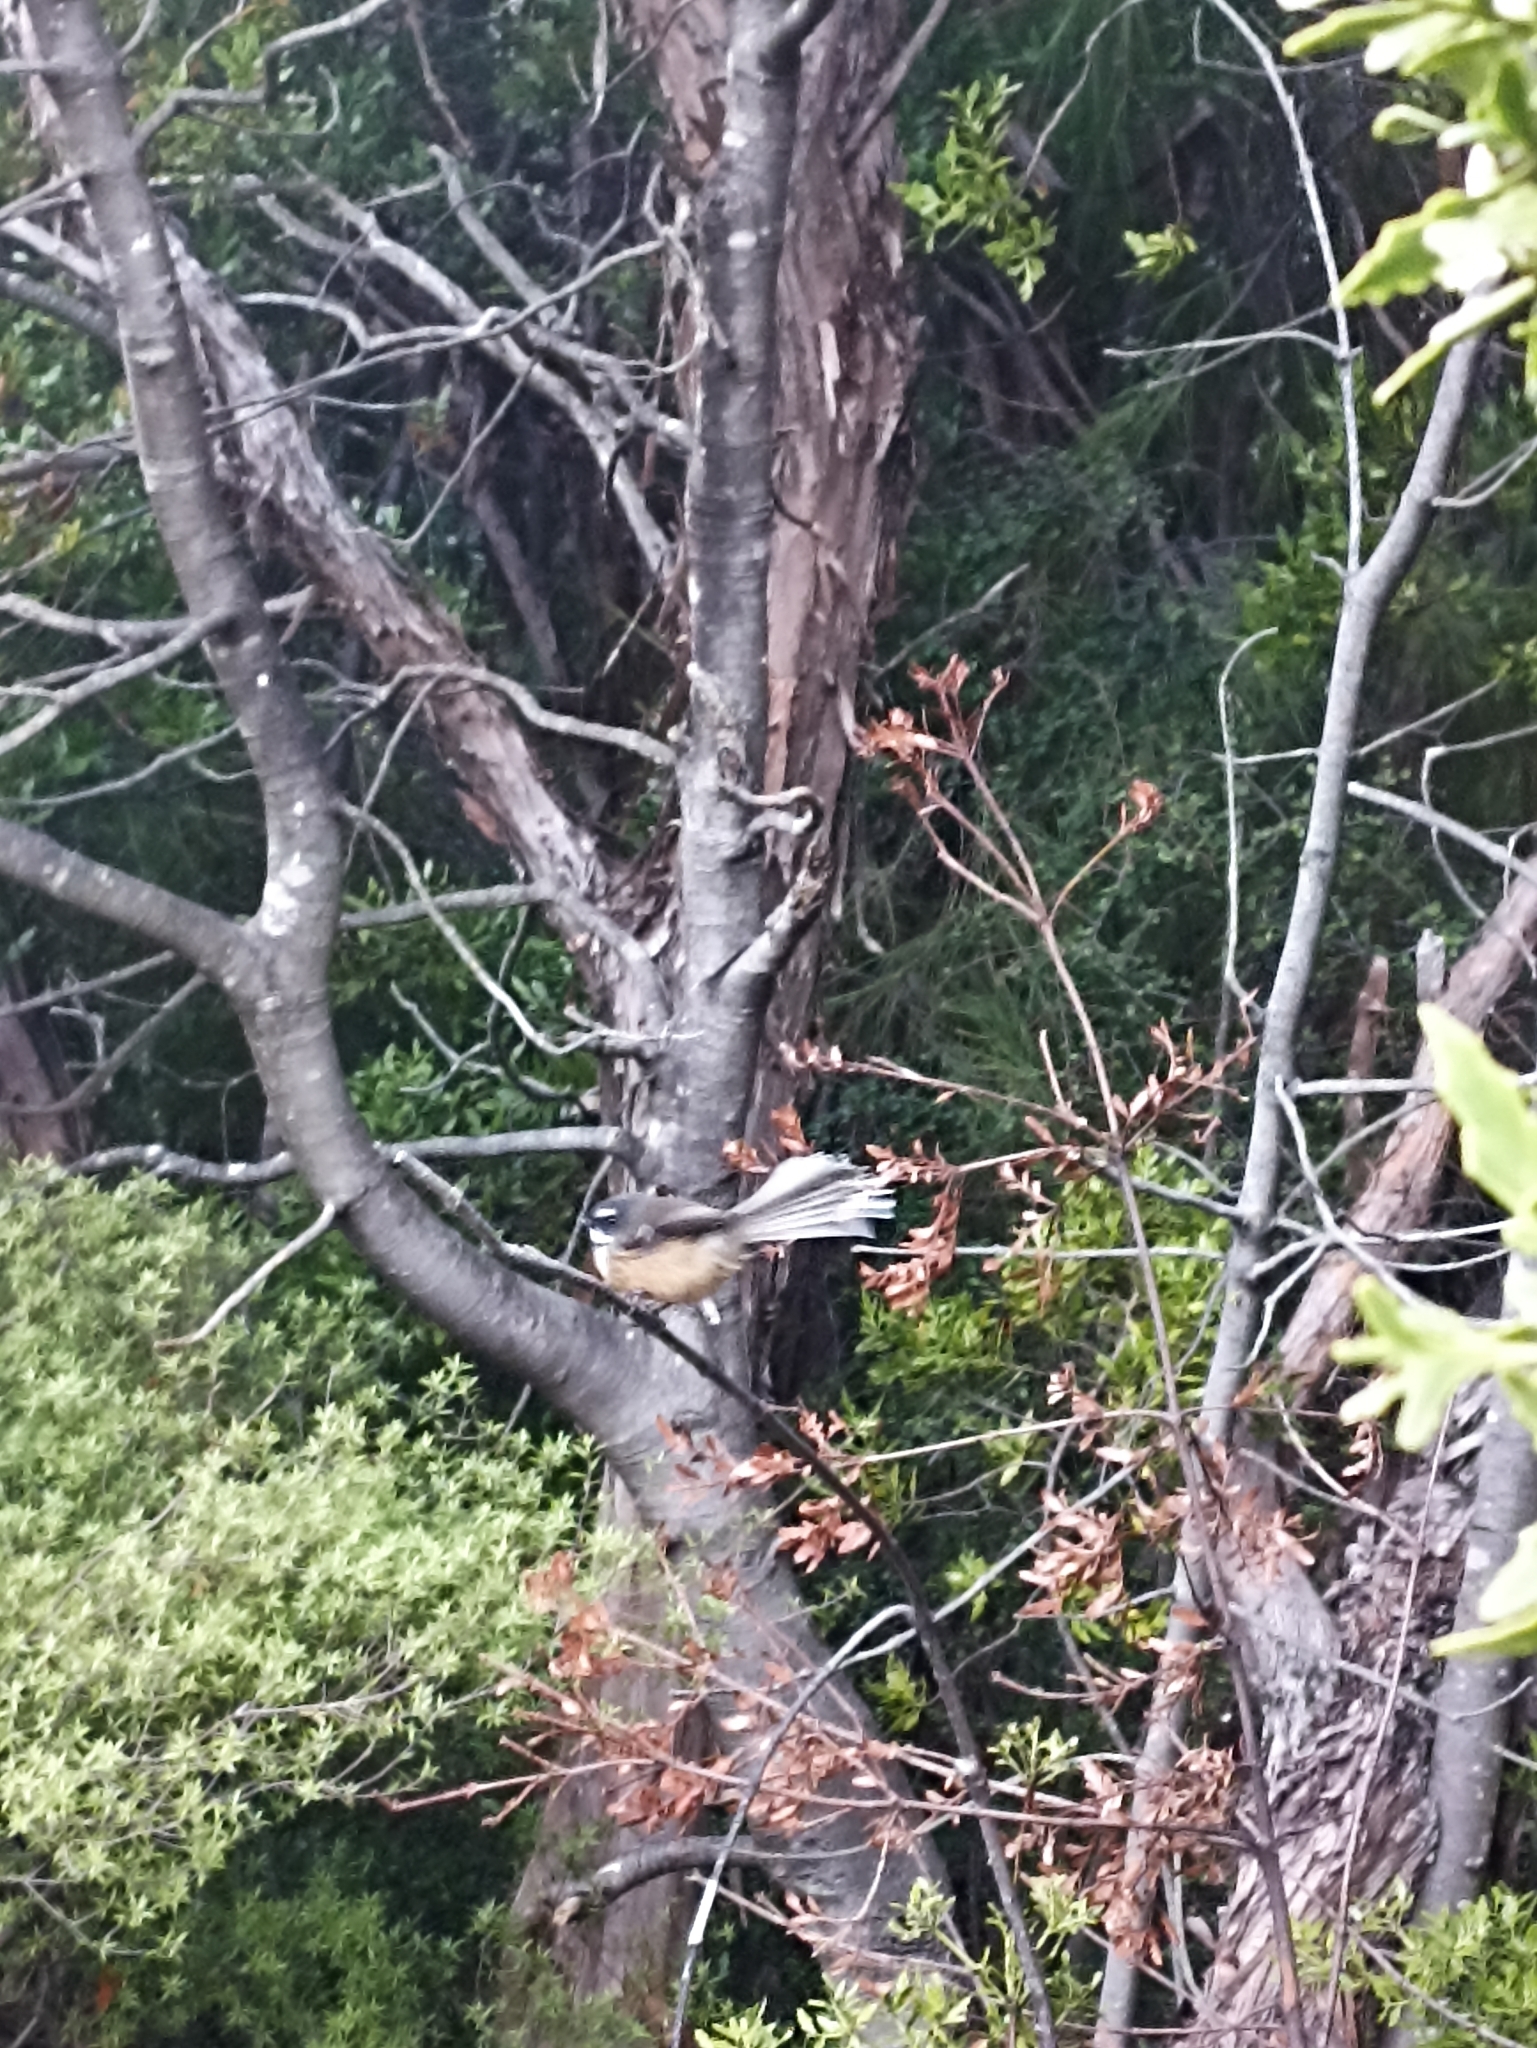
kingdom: Animalia
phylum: Chordata
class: Aves
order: Passeriformes
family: Rhipiduridae
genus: Rhipidura
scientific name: Rhipidura fuliginosa
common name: New zealand fantail
